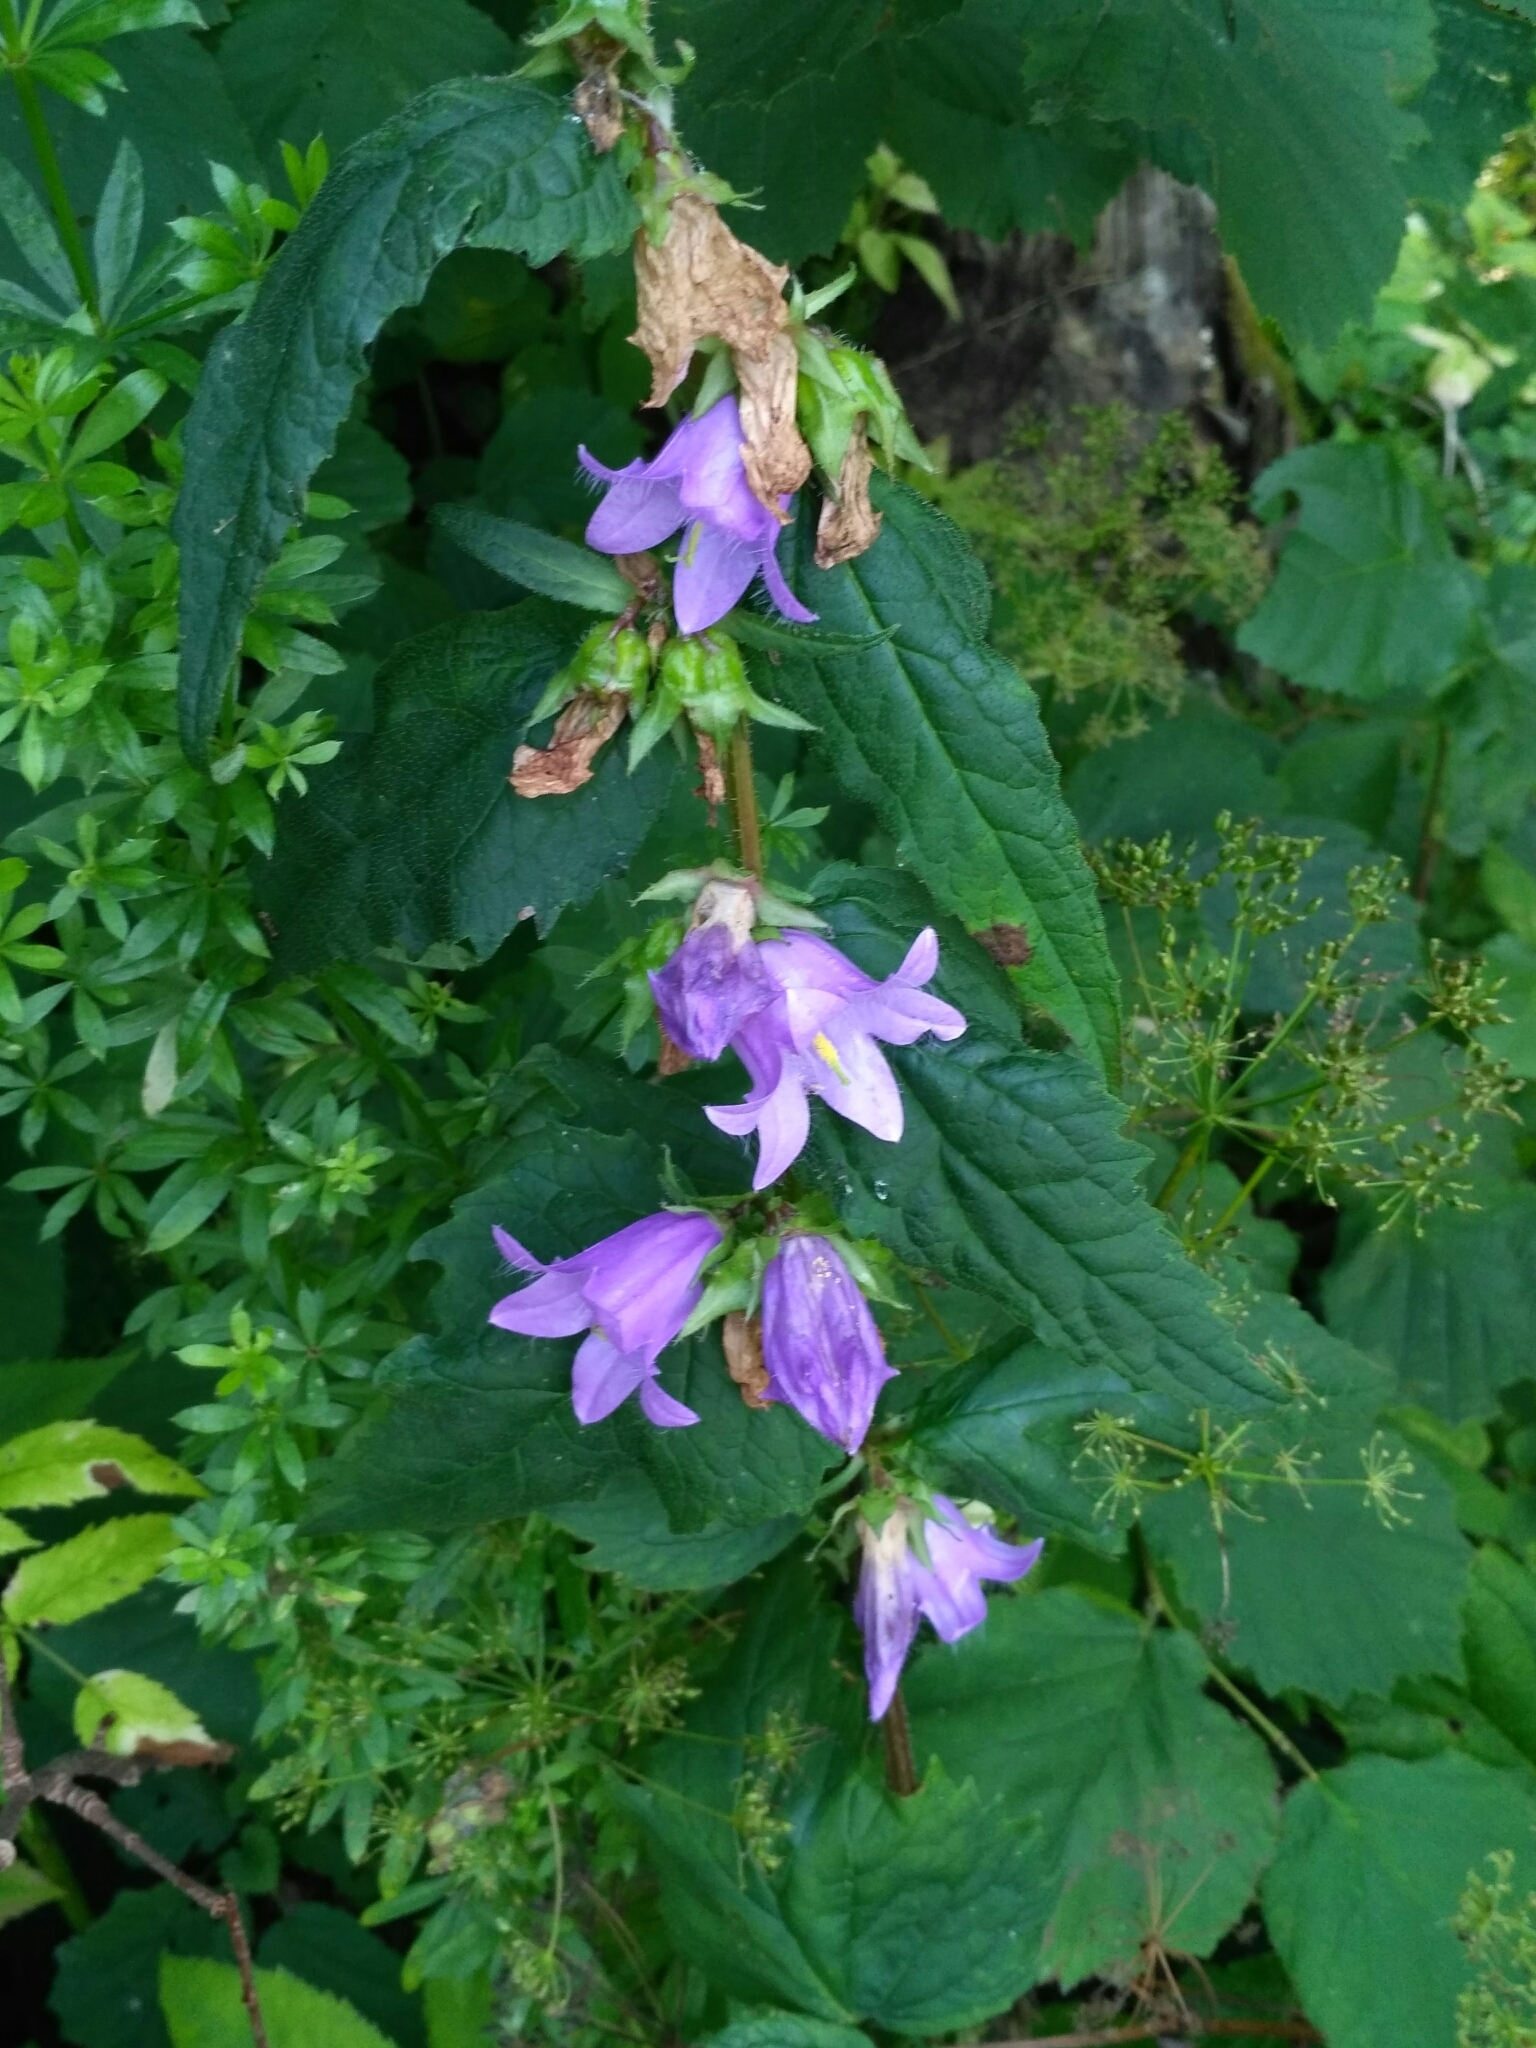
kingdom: Plantae
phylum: Tracheophyta
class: Magnoliopsida
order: Asterales
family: Campanulaceae
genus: Campanula
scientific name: Campanula trachelium
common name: Nettle-leaved bellflower
